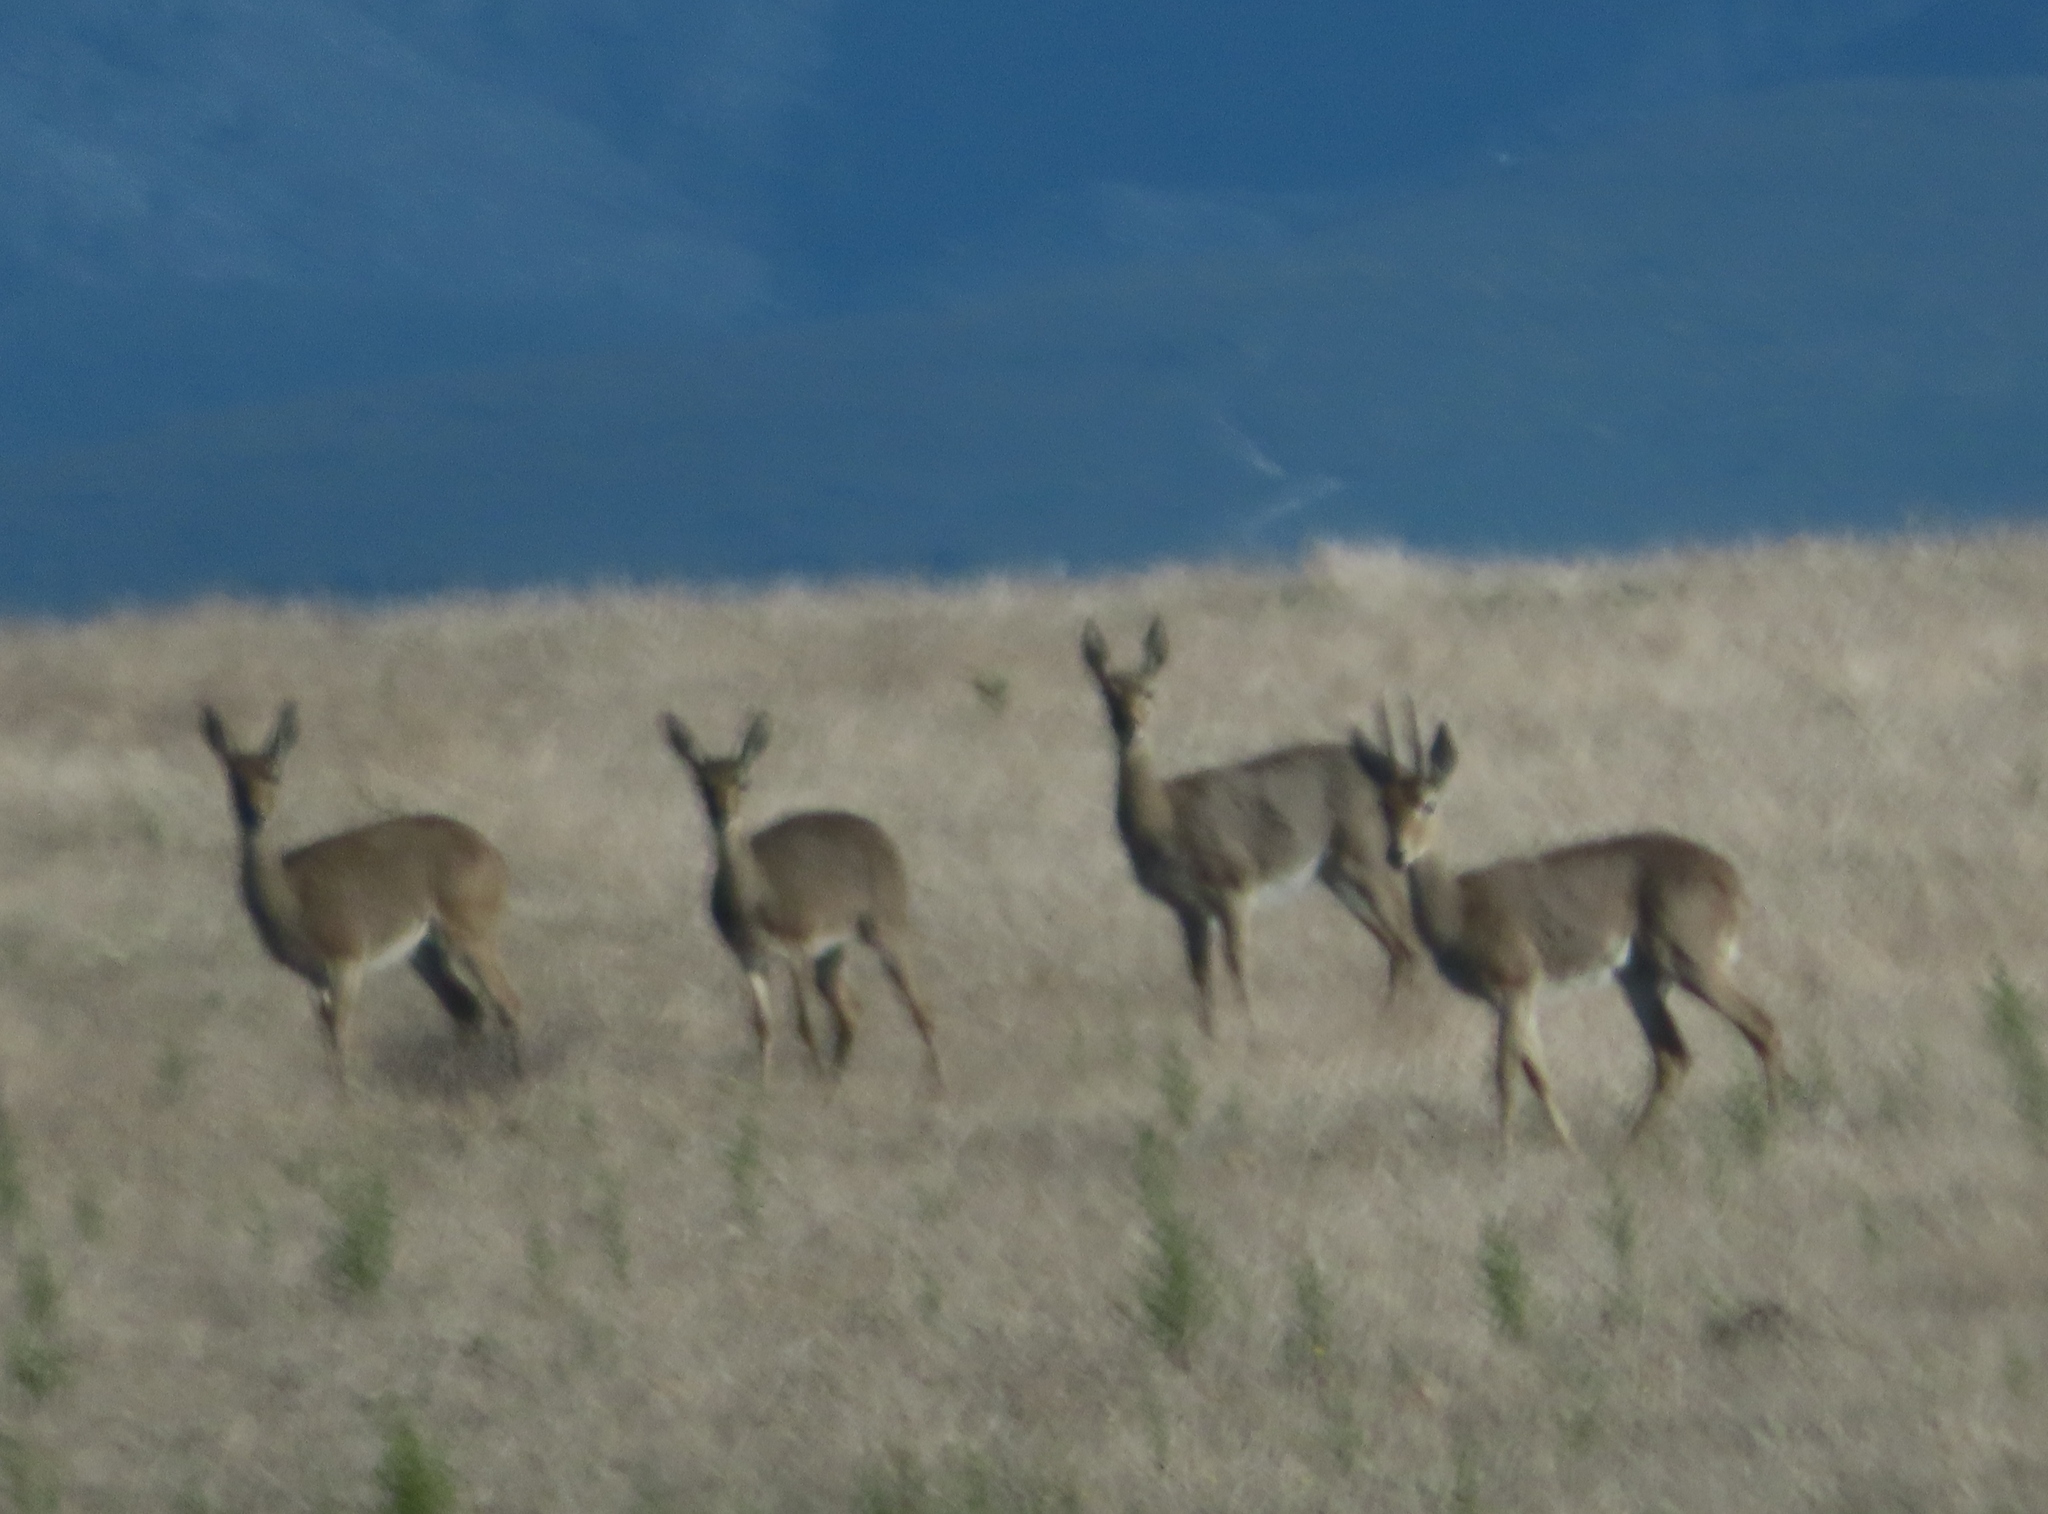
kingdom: Animalia
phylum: Chordata
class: Mammalia
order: Artiodactyla
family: Bovidae
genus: Pelea
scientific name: Pelea capreolus
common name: Common rhebok
